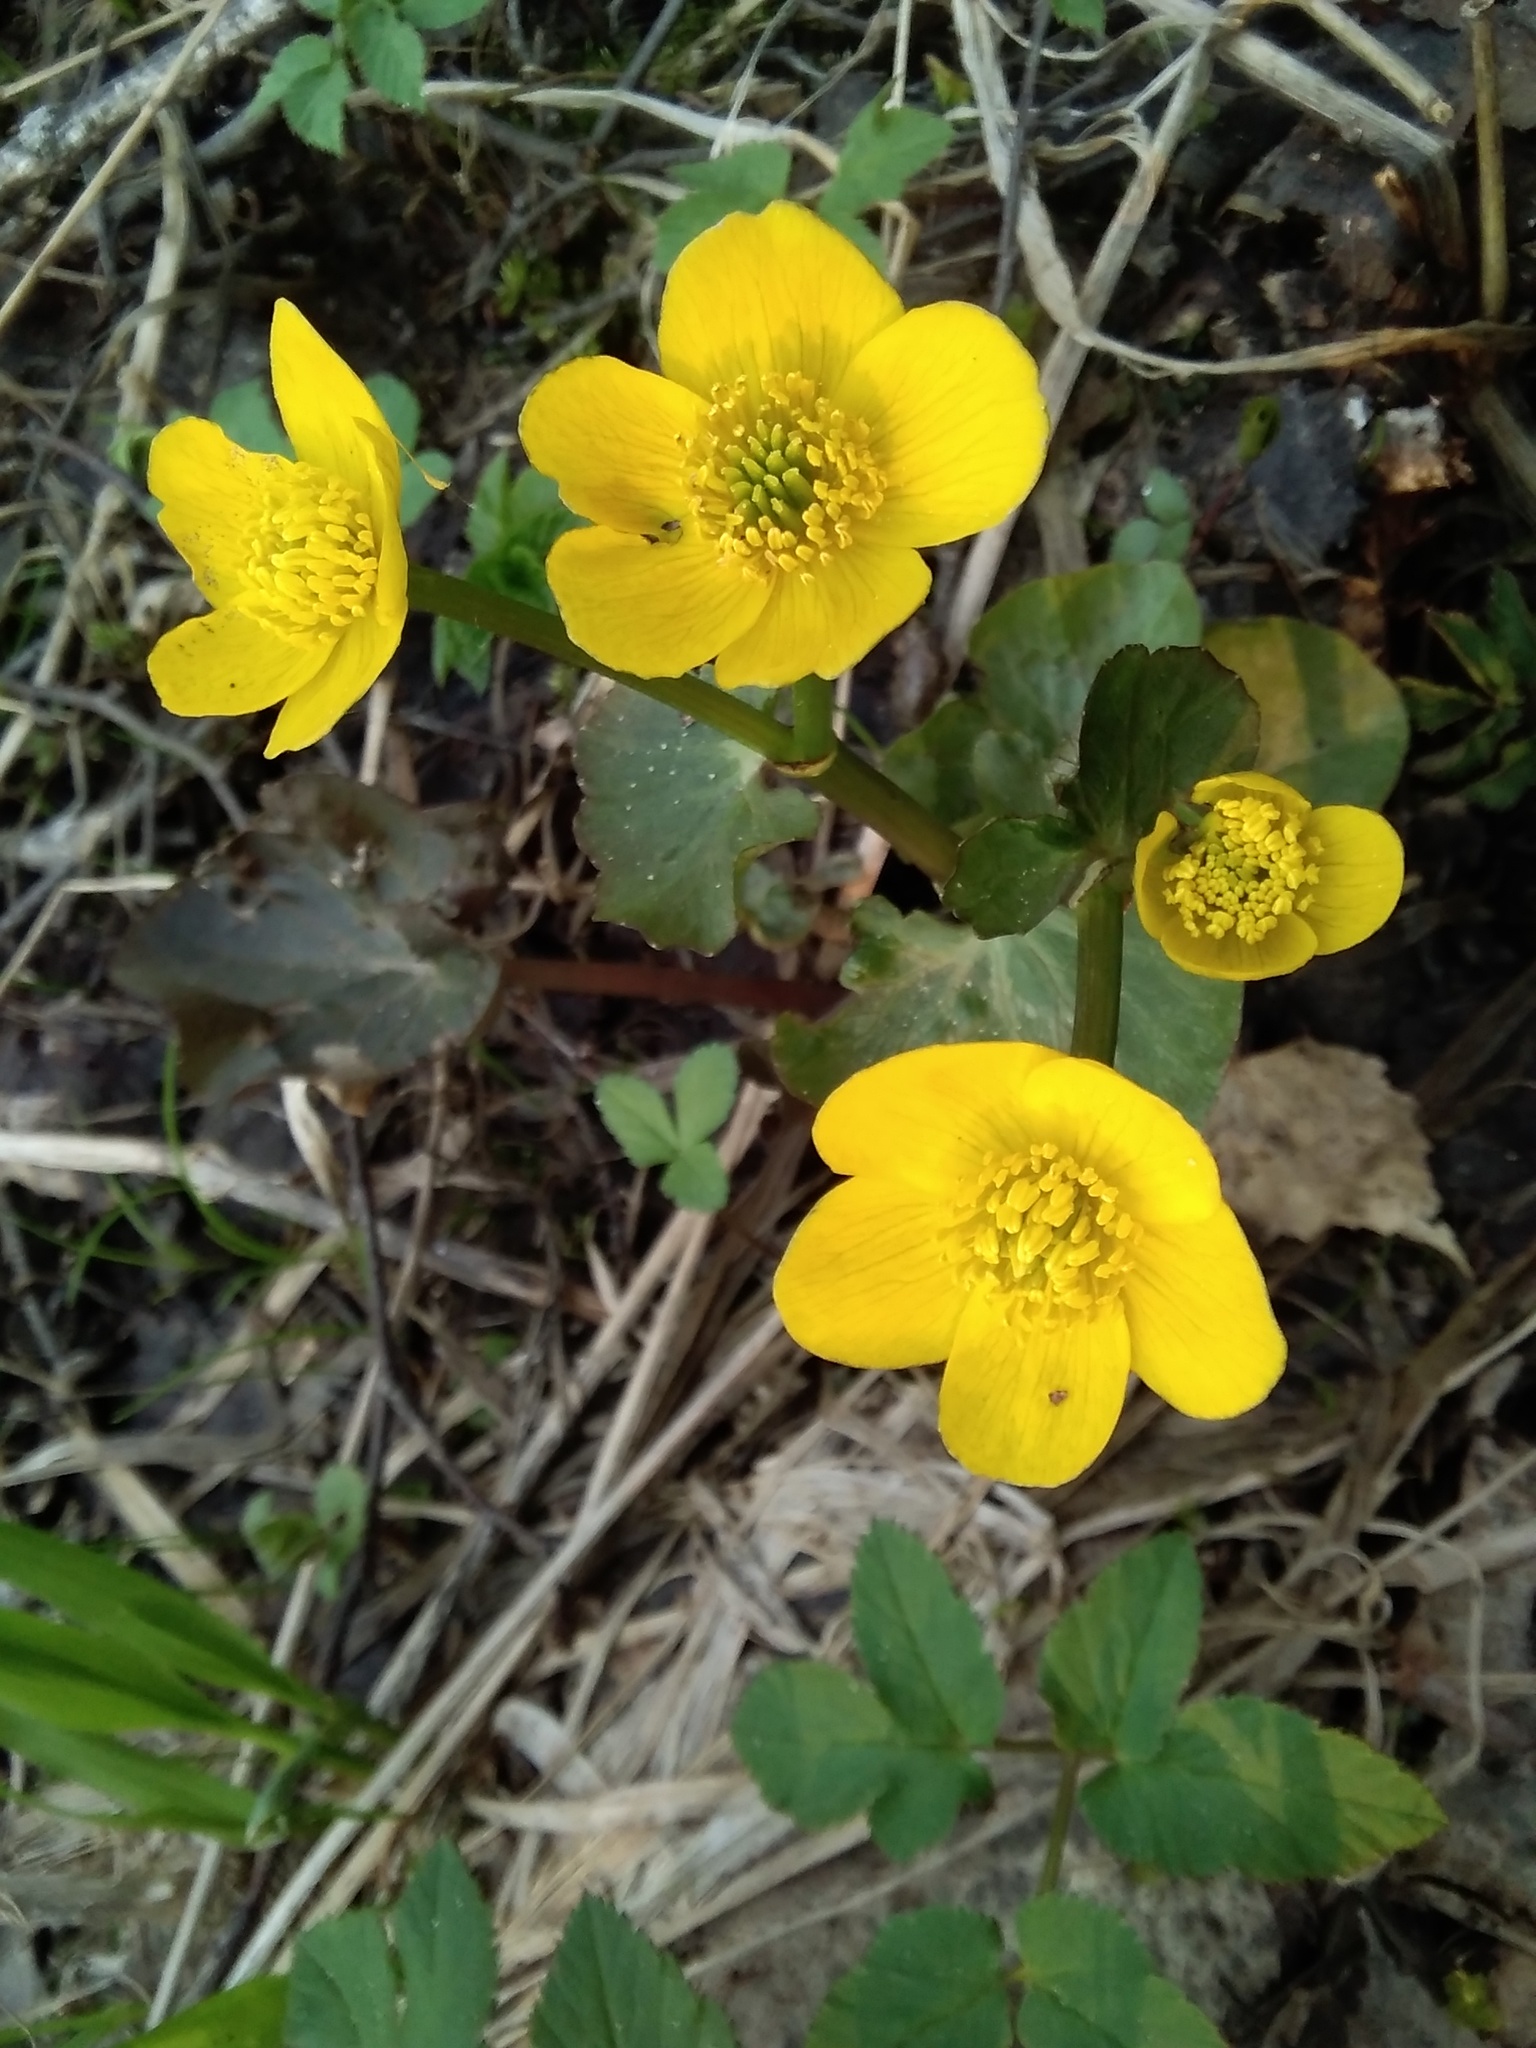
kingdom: Plantae
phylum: Tracheophyta
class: Magnoliopsida
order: Ranunculales
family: Ranunculaceae
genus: Caltha
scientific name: Caltha palustris
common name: Marsh marigold
